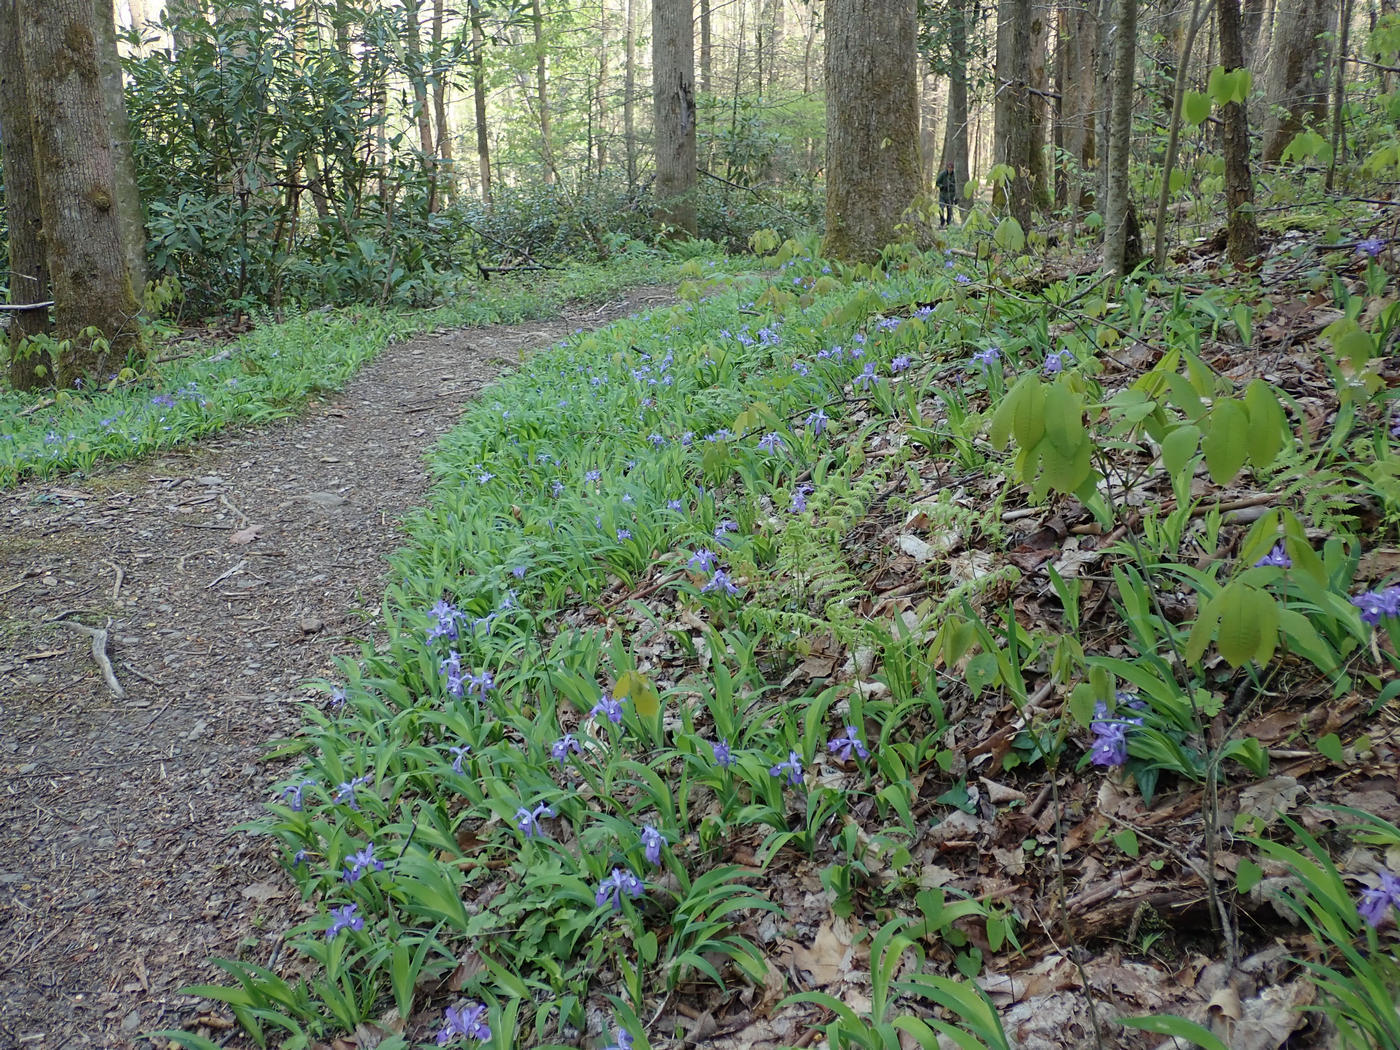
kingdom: Plantae
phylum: Tracheophyta
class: Liliopsida
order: Asparagales
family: Iridaceae
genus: Iris
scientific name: Iris cristata
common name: Crested iris
